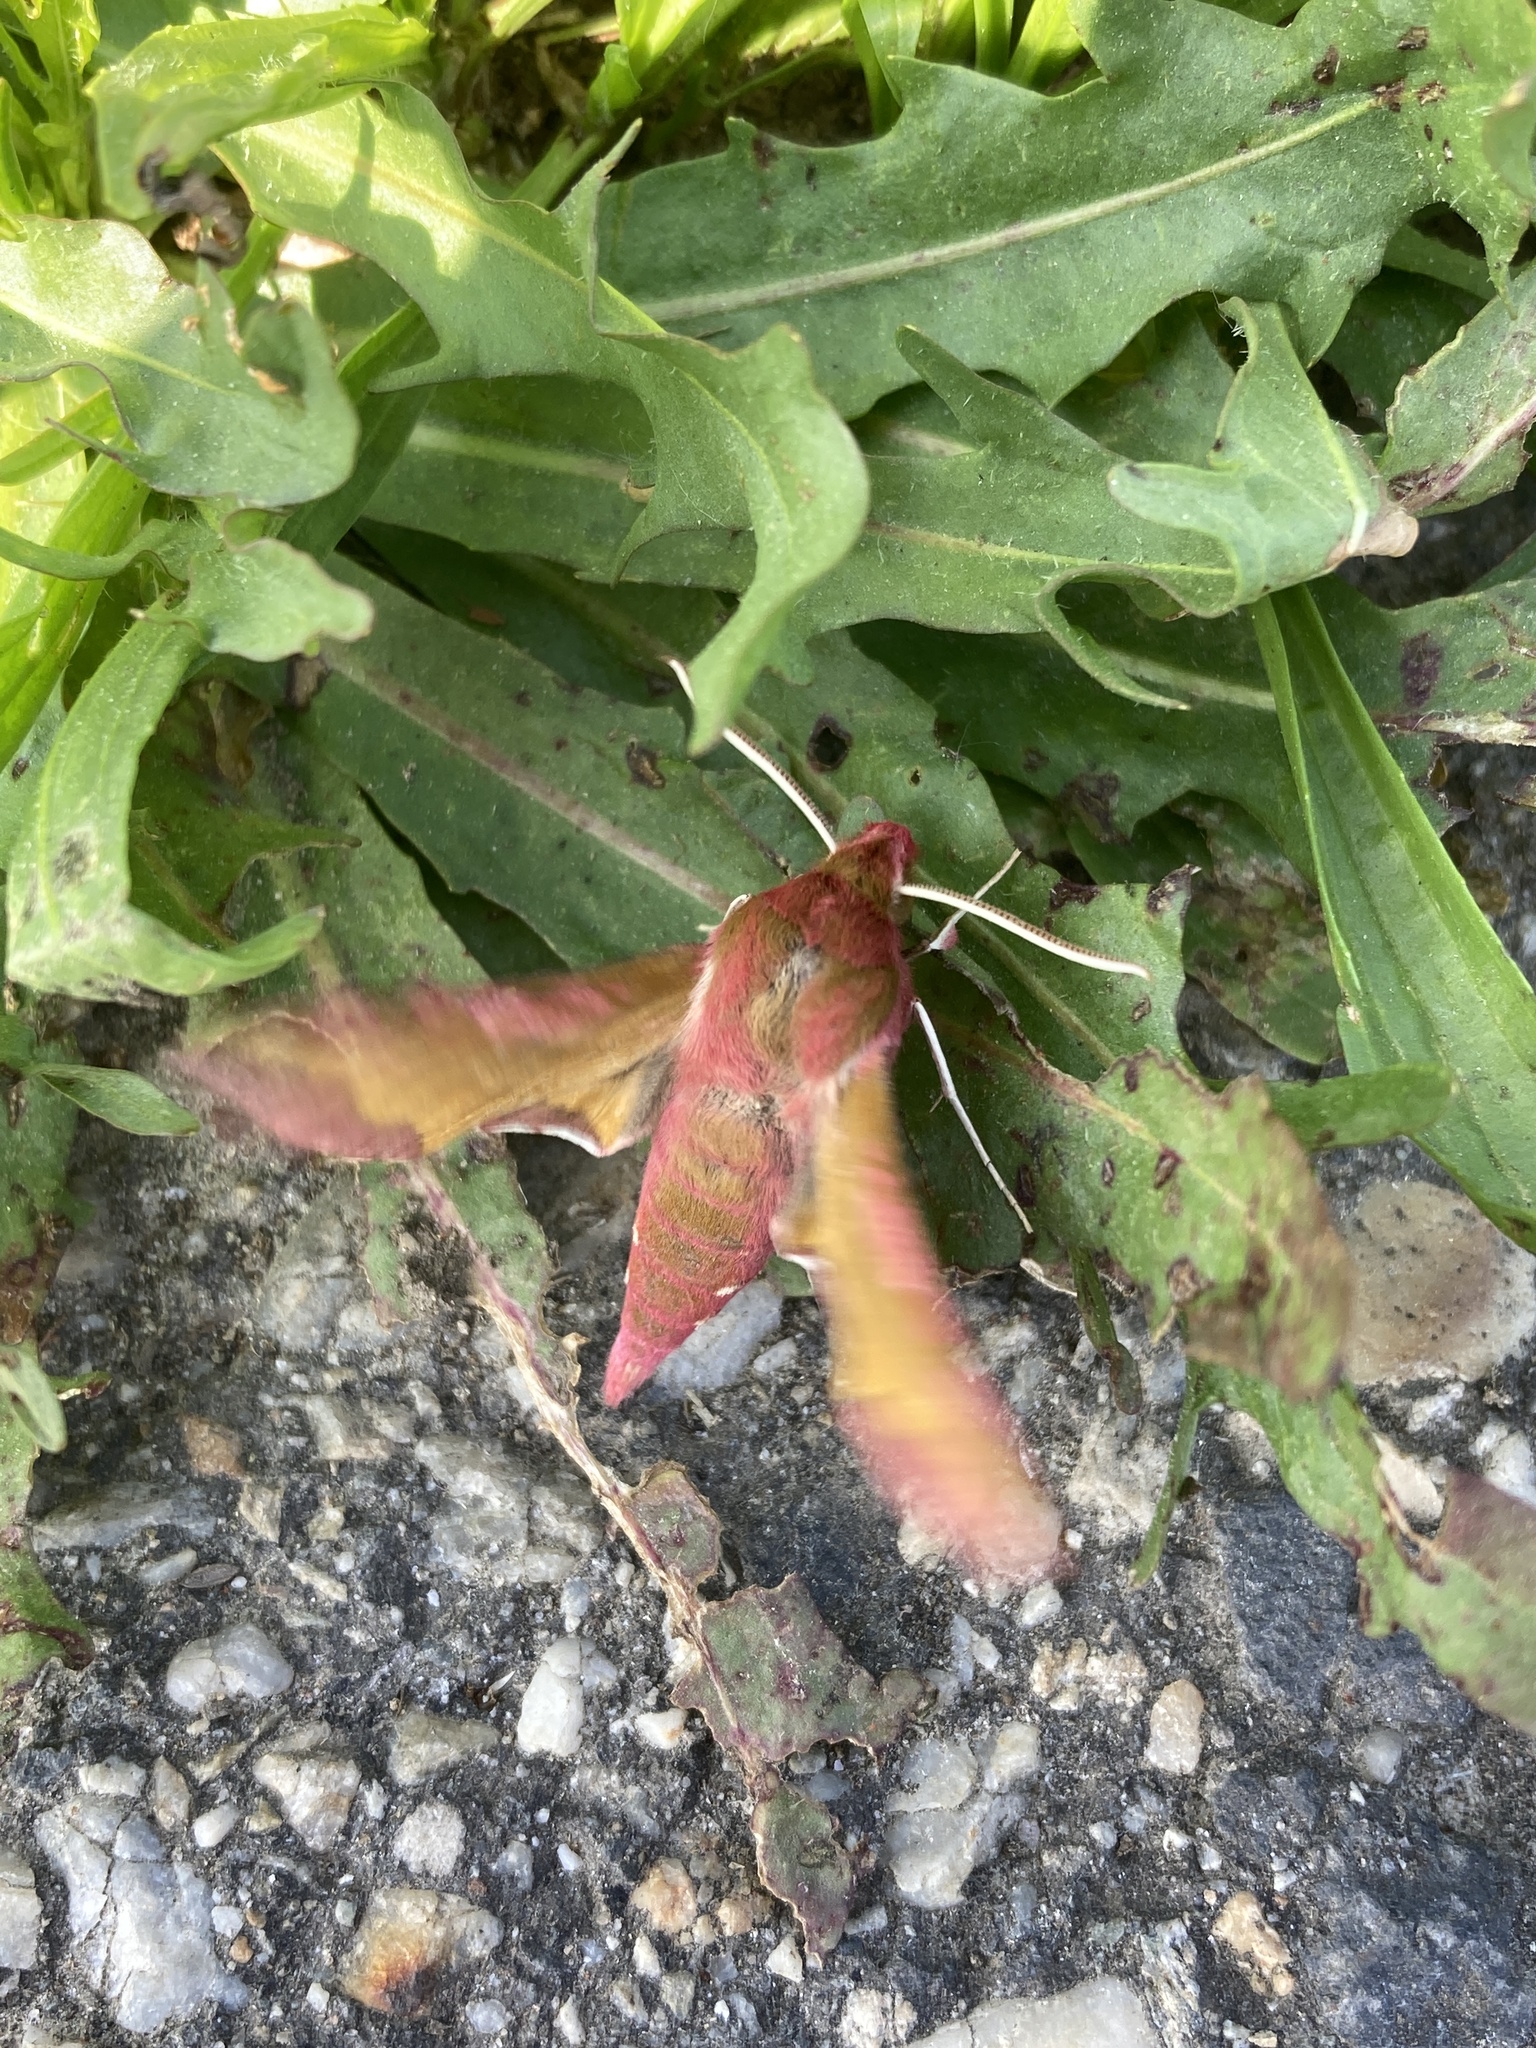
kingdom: Animalia
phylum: Arthropoda
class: Insecta
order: Lepidoptera
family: Sphingidae
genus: Deilephila
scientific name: Deilephila porcellus
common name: Small elephant hawk-moth
